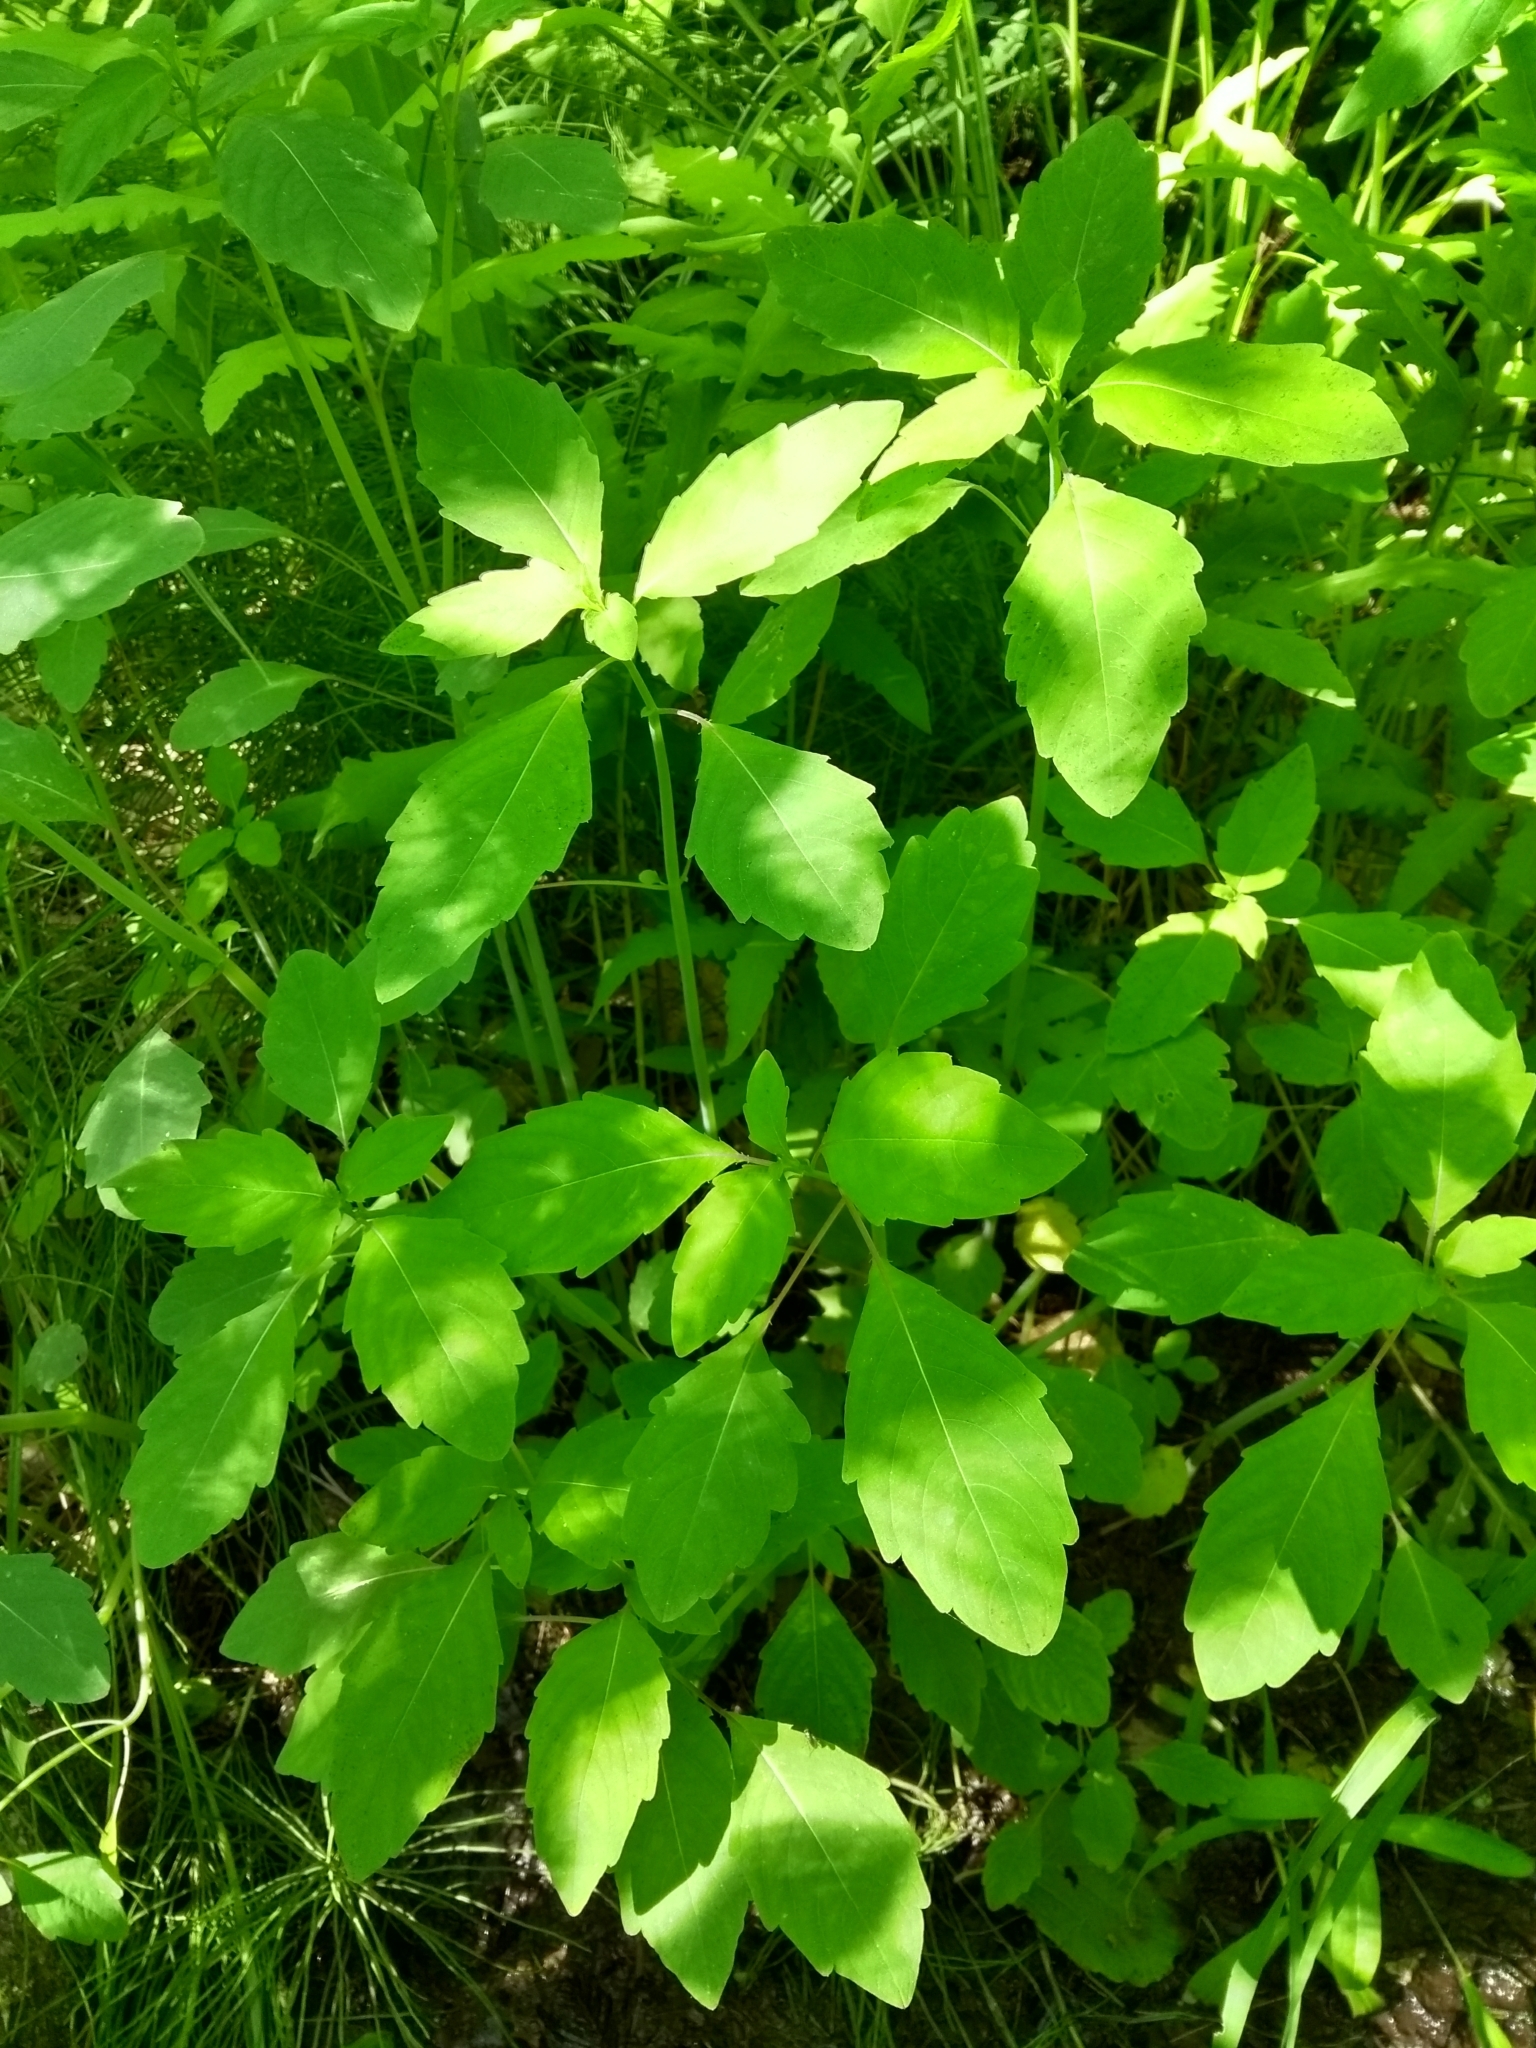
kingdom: Plantae
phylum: Tracheophyta
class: Magnoliopsida
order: Ericales
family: Balsaminaceae
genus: Impatiens
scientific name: Impatiens capensis
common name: Orange balsam
